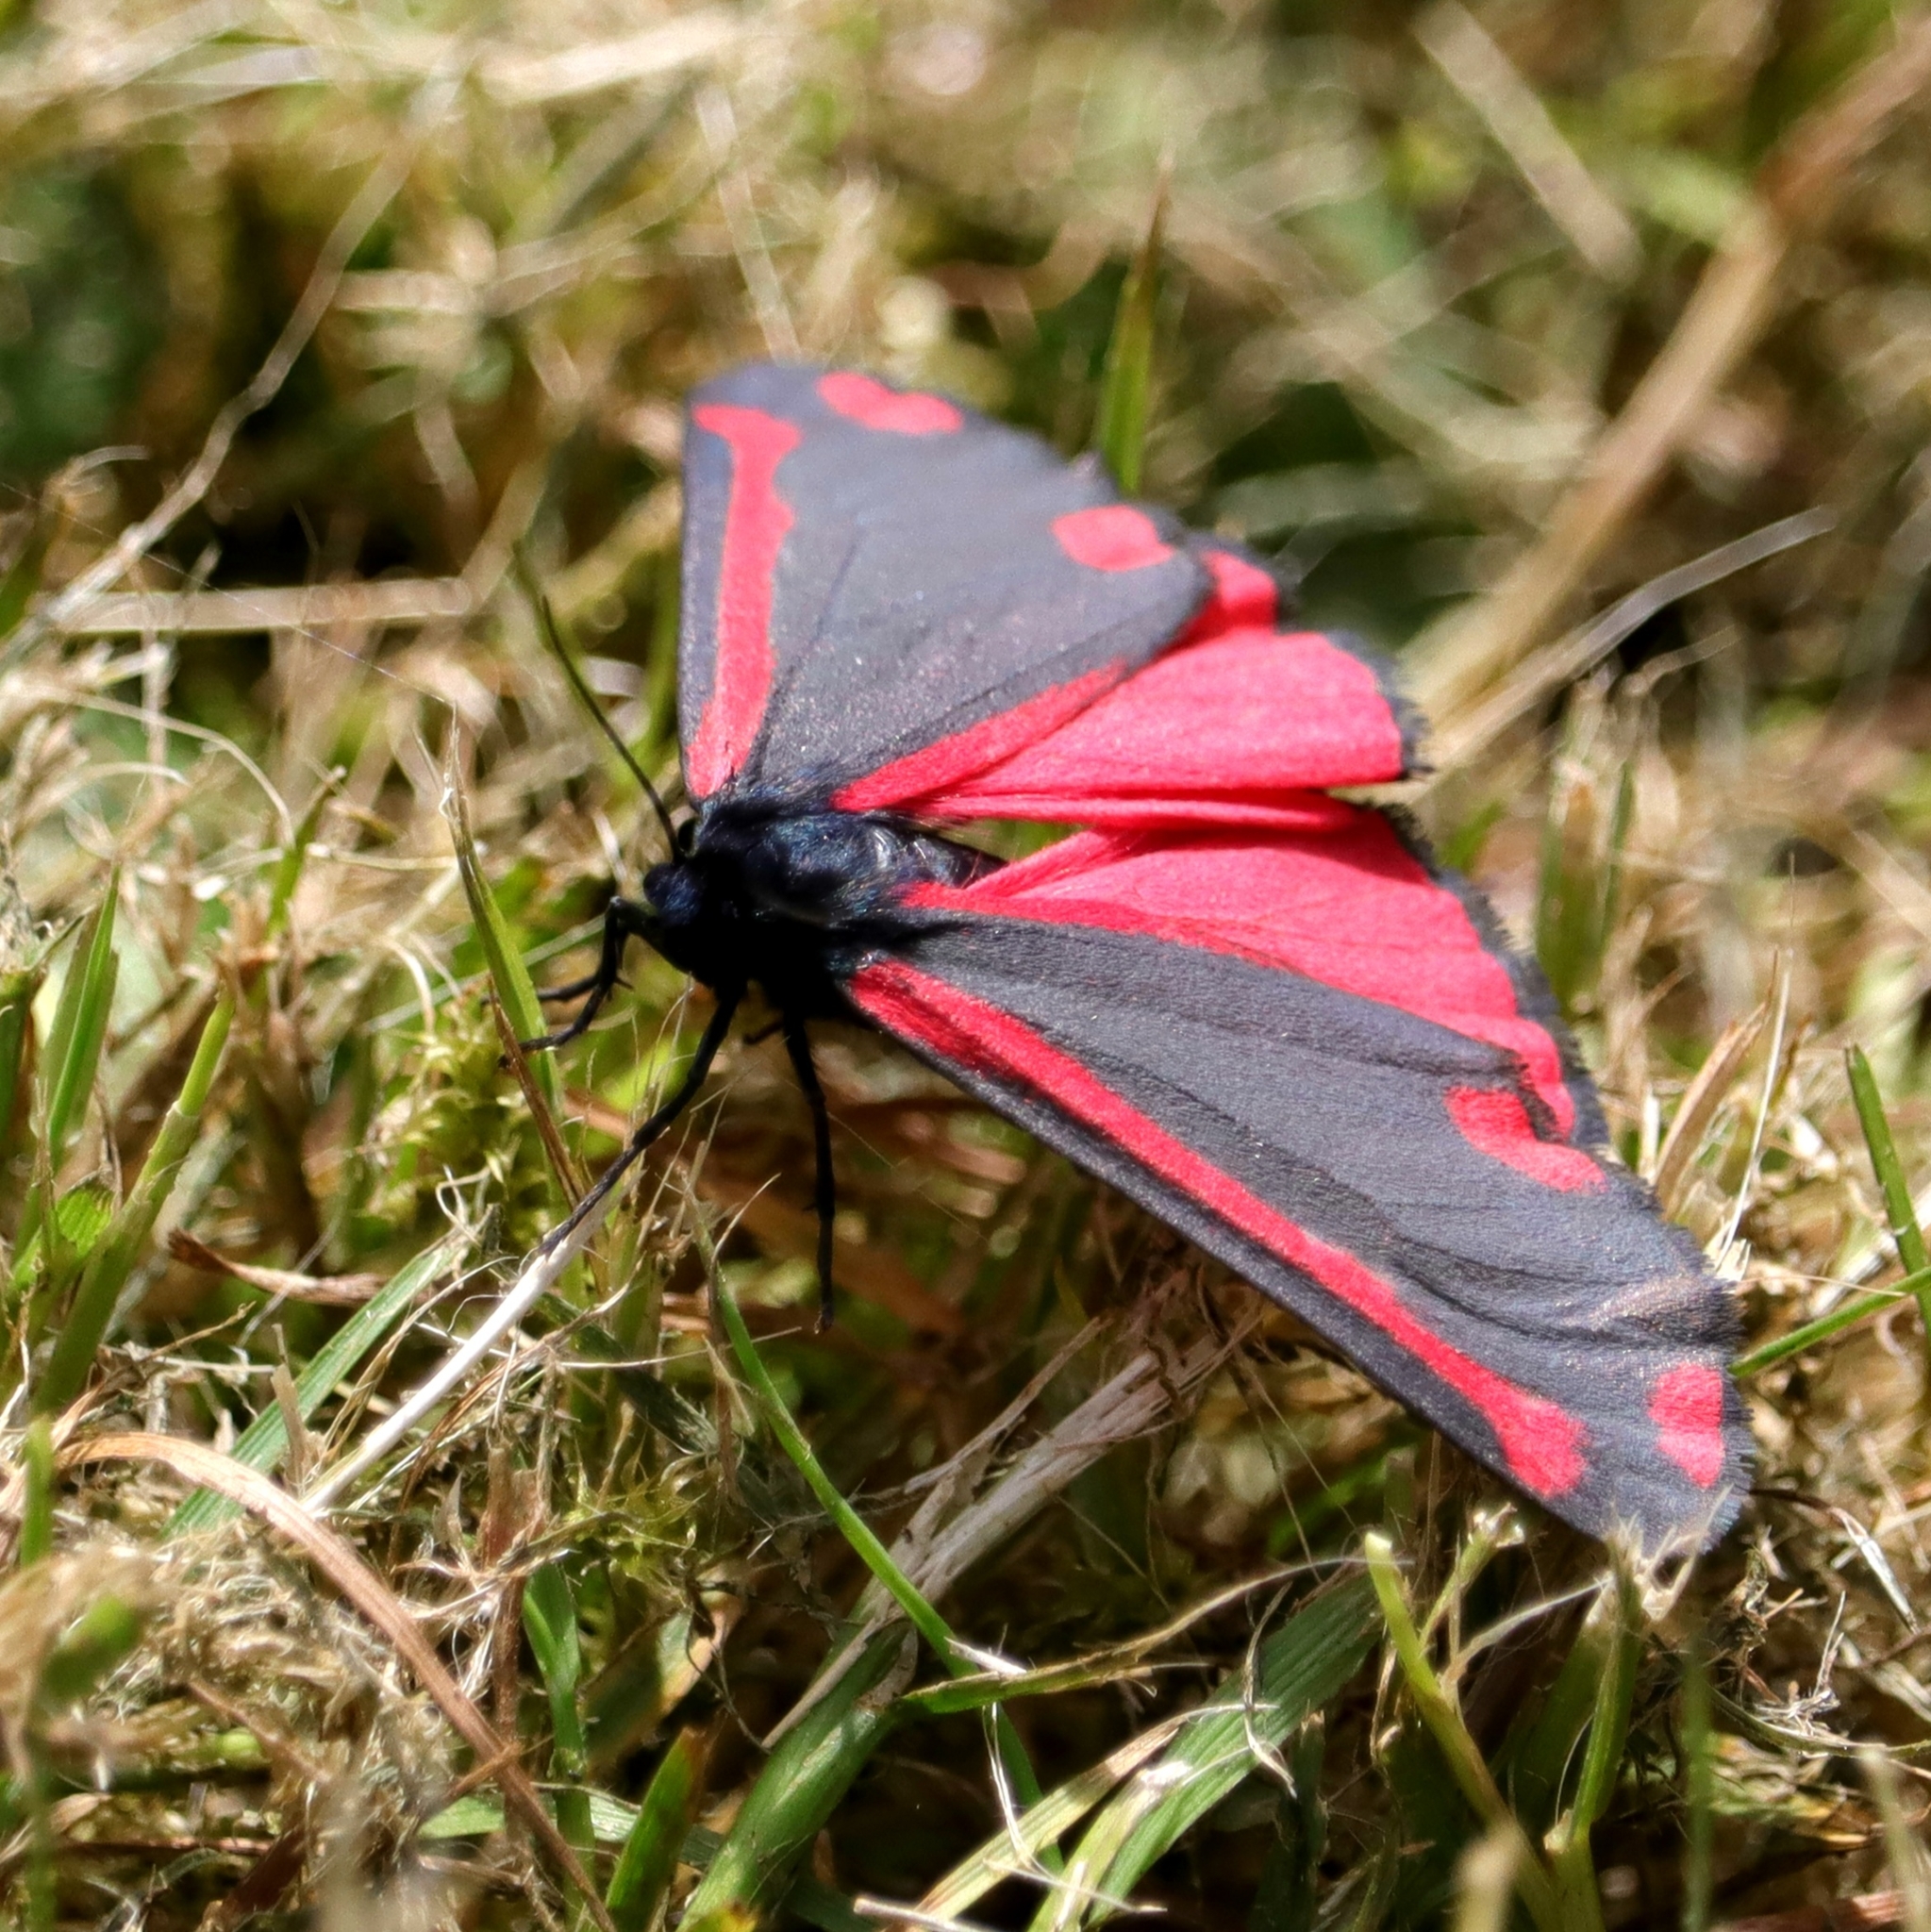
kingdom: Animalia
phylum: Arthropoda
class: Insecta
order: Lepidoptera
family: Erebidae
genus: Tyria
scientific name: Tyria jacobaeae
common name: Cinnabar
